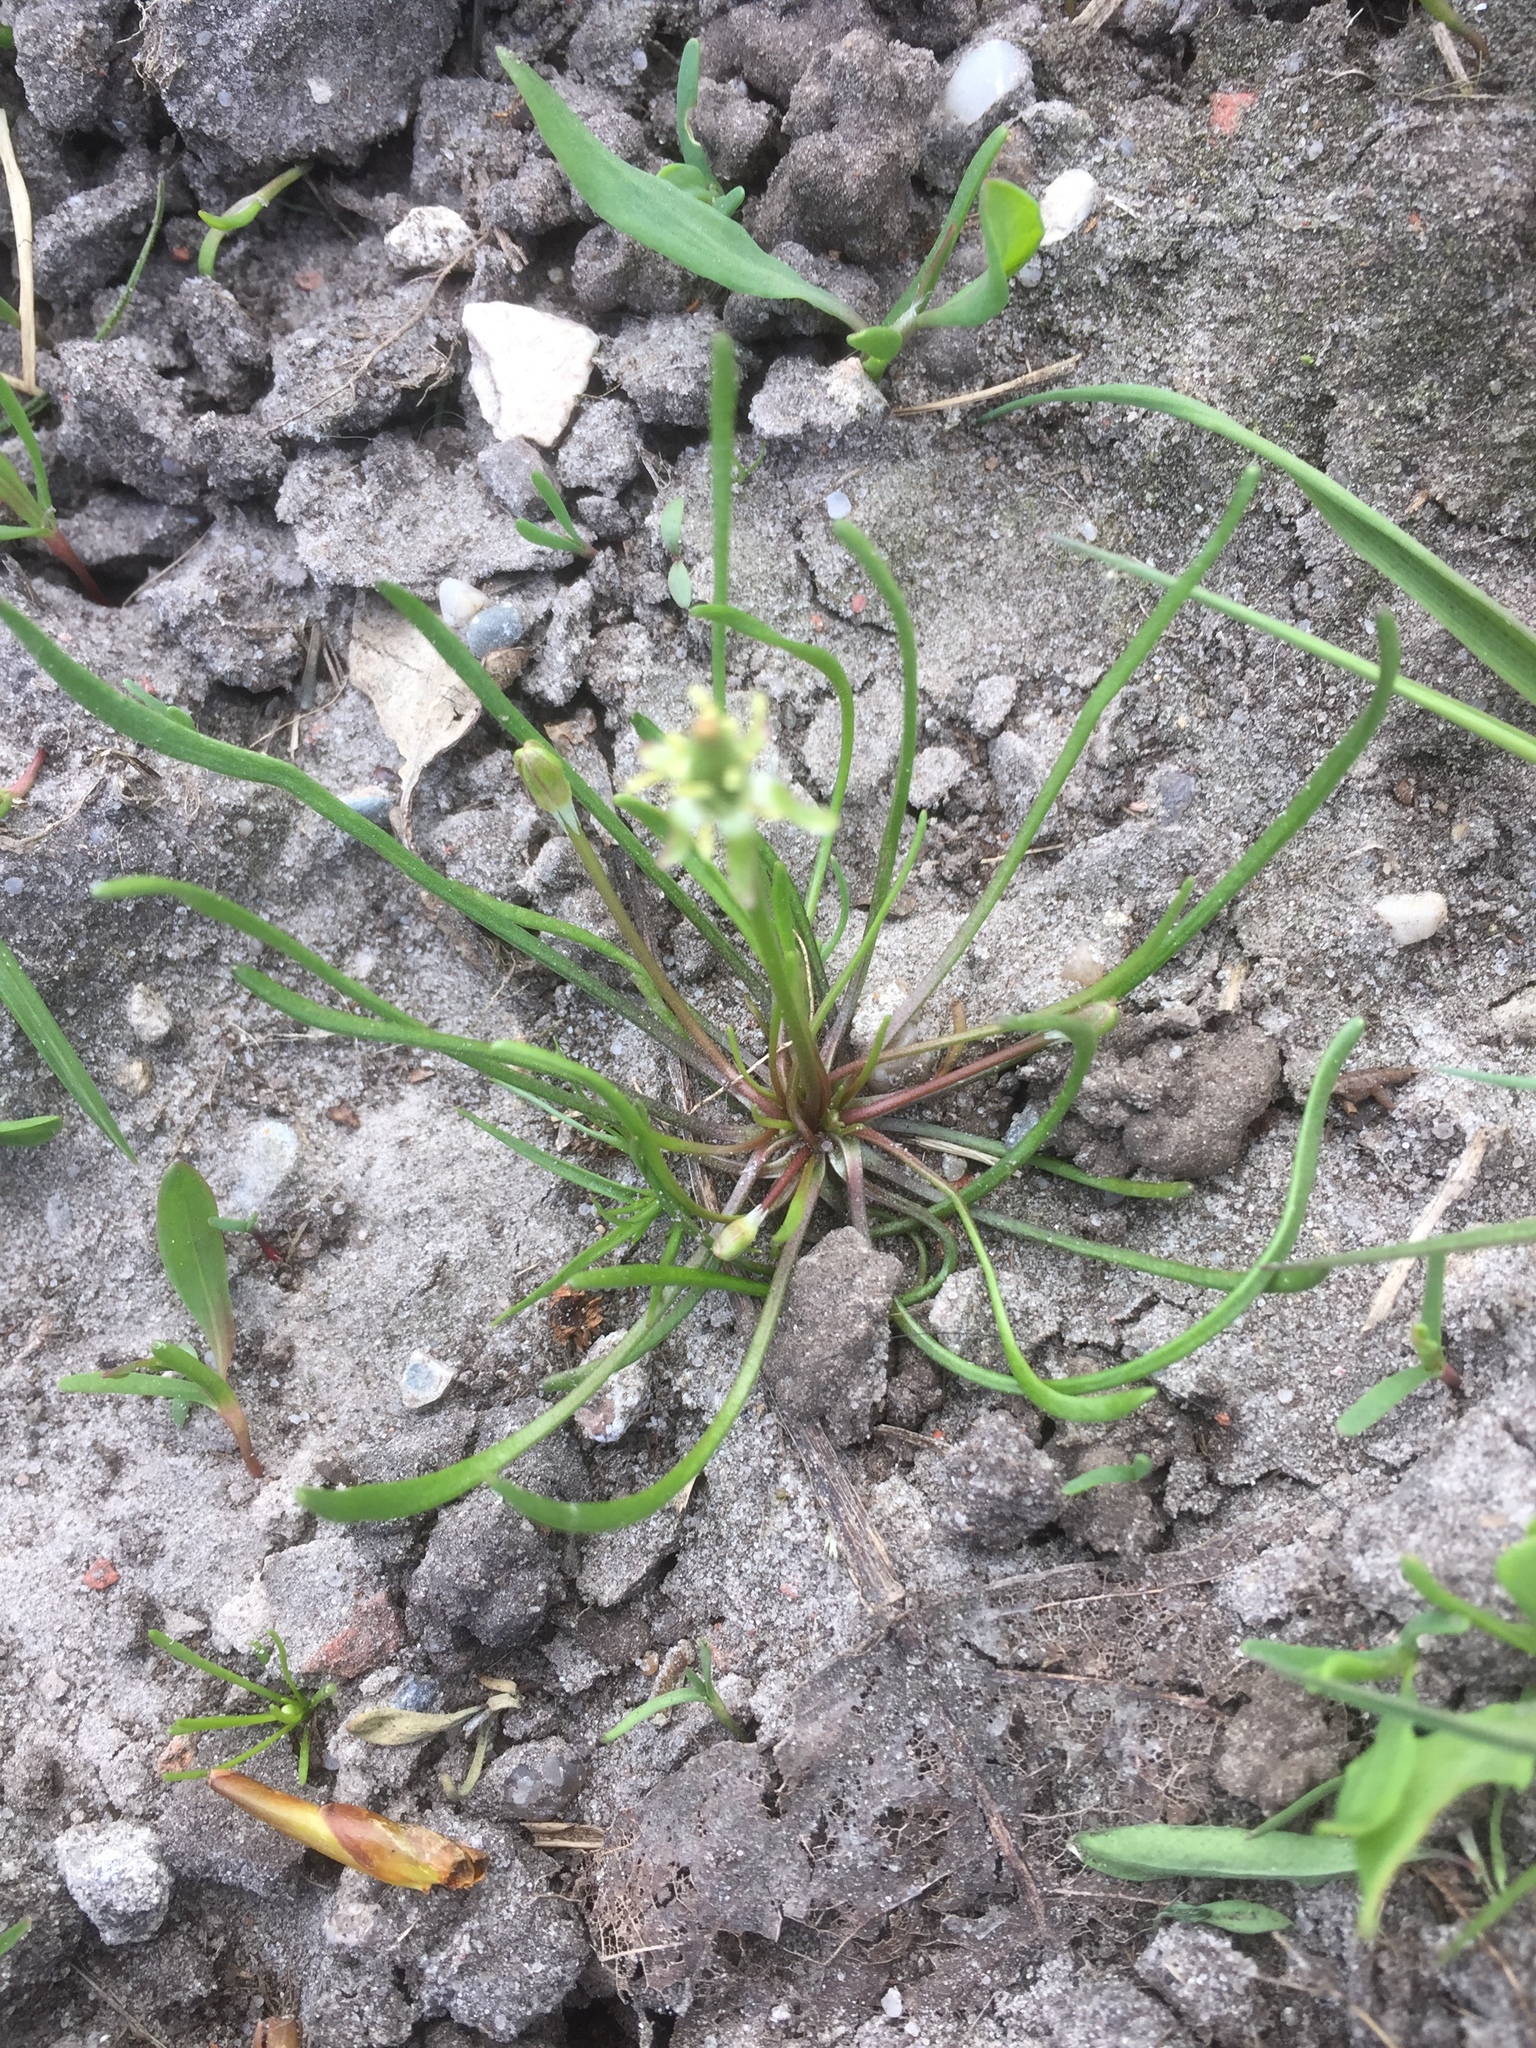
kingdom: Plantae
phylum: Tracheophyta
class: Magnoliopsida
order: Ranunculales
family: Ranunculaceae
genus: Myosurus
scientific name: Myosurus minimus
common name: Mousetail
